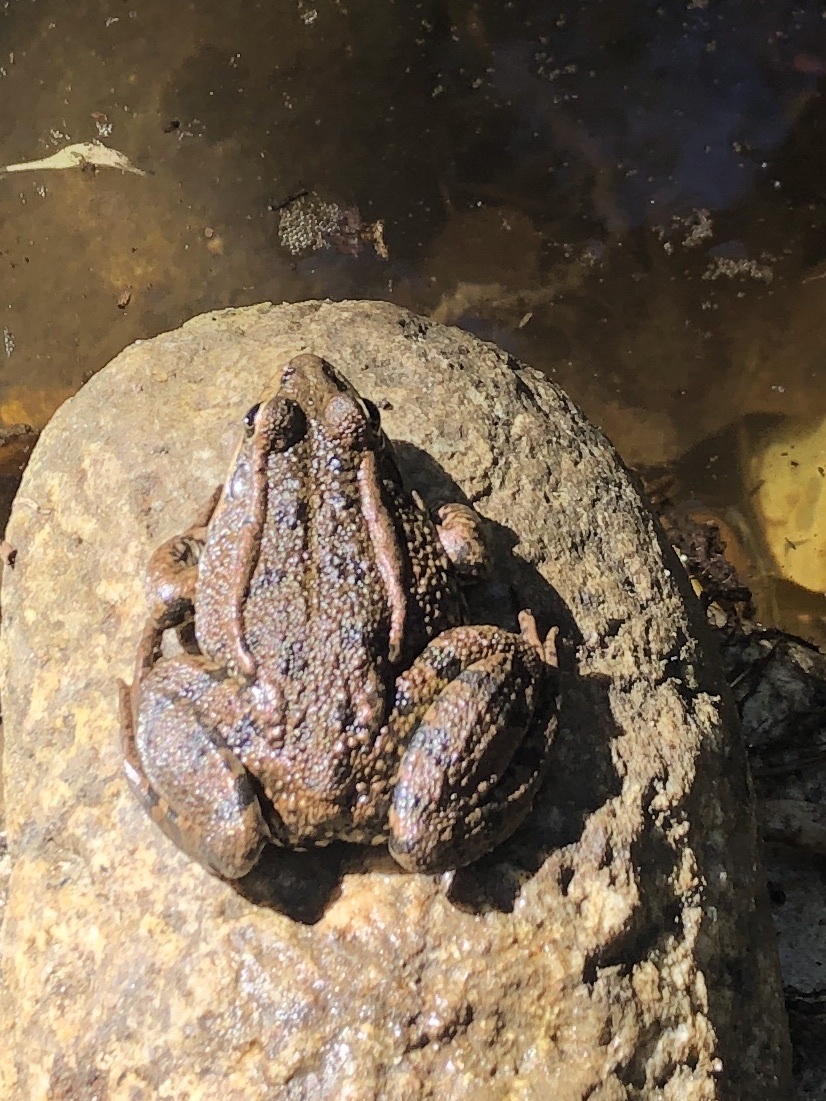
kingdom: Animalia
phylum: Chordata
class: Amphibia
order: Anura
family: Ranidae
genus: Pelophylax
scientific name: Pelophylax perezi
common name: Perez's frog
